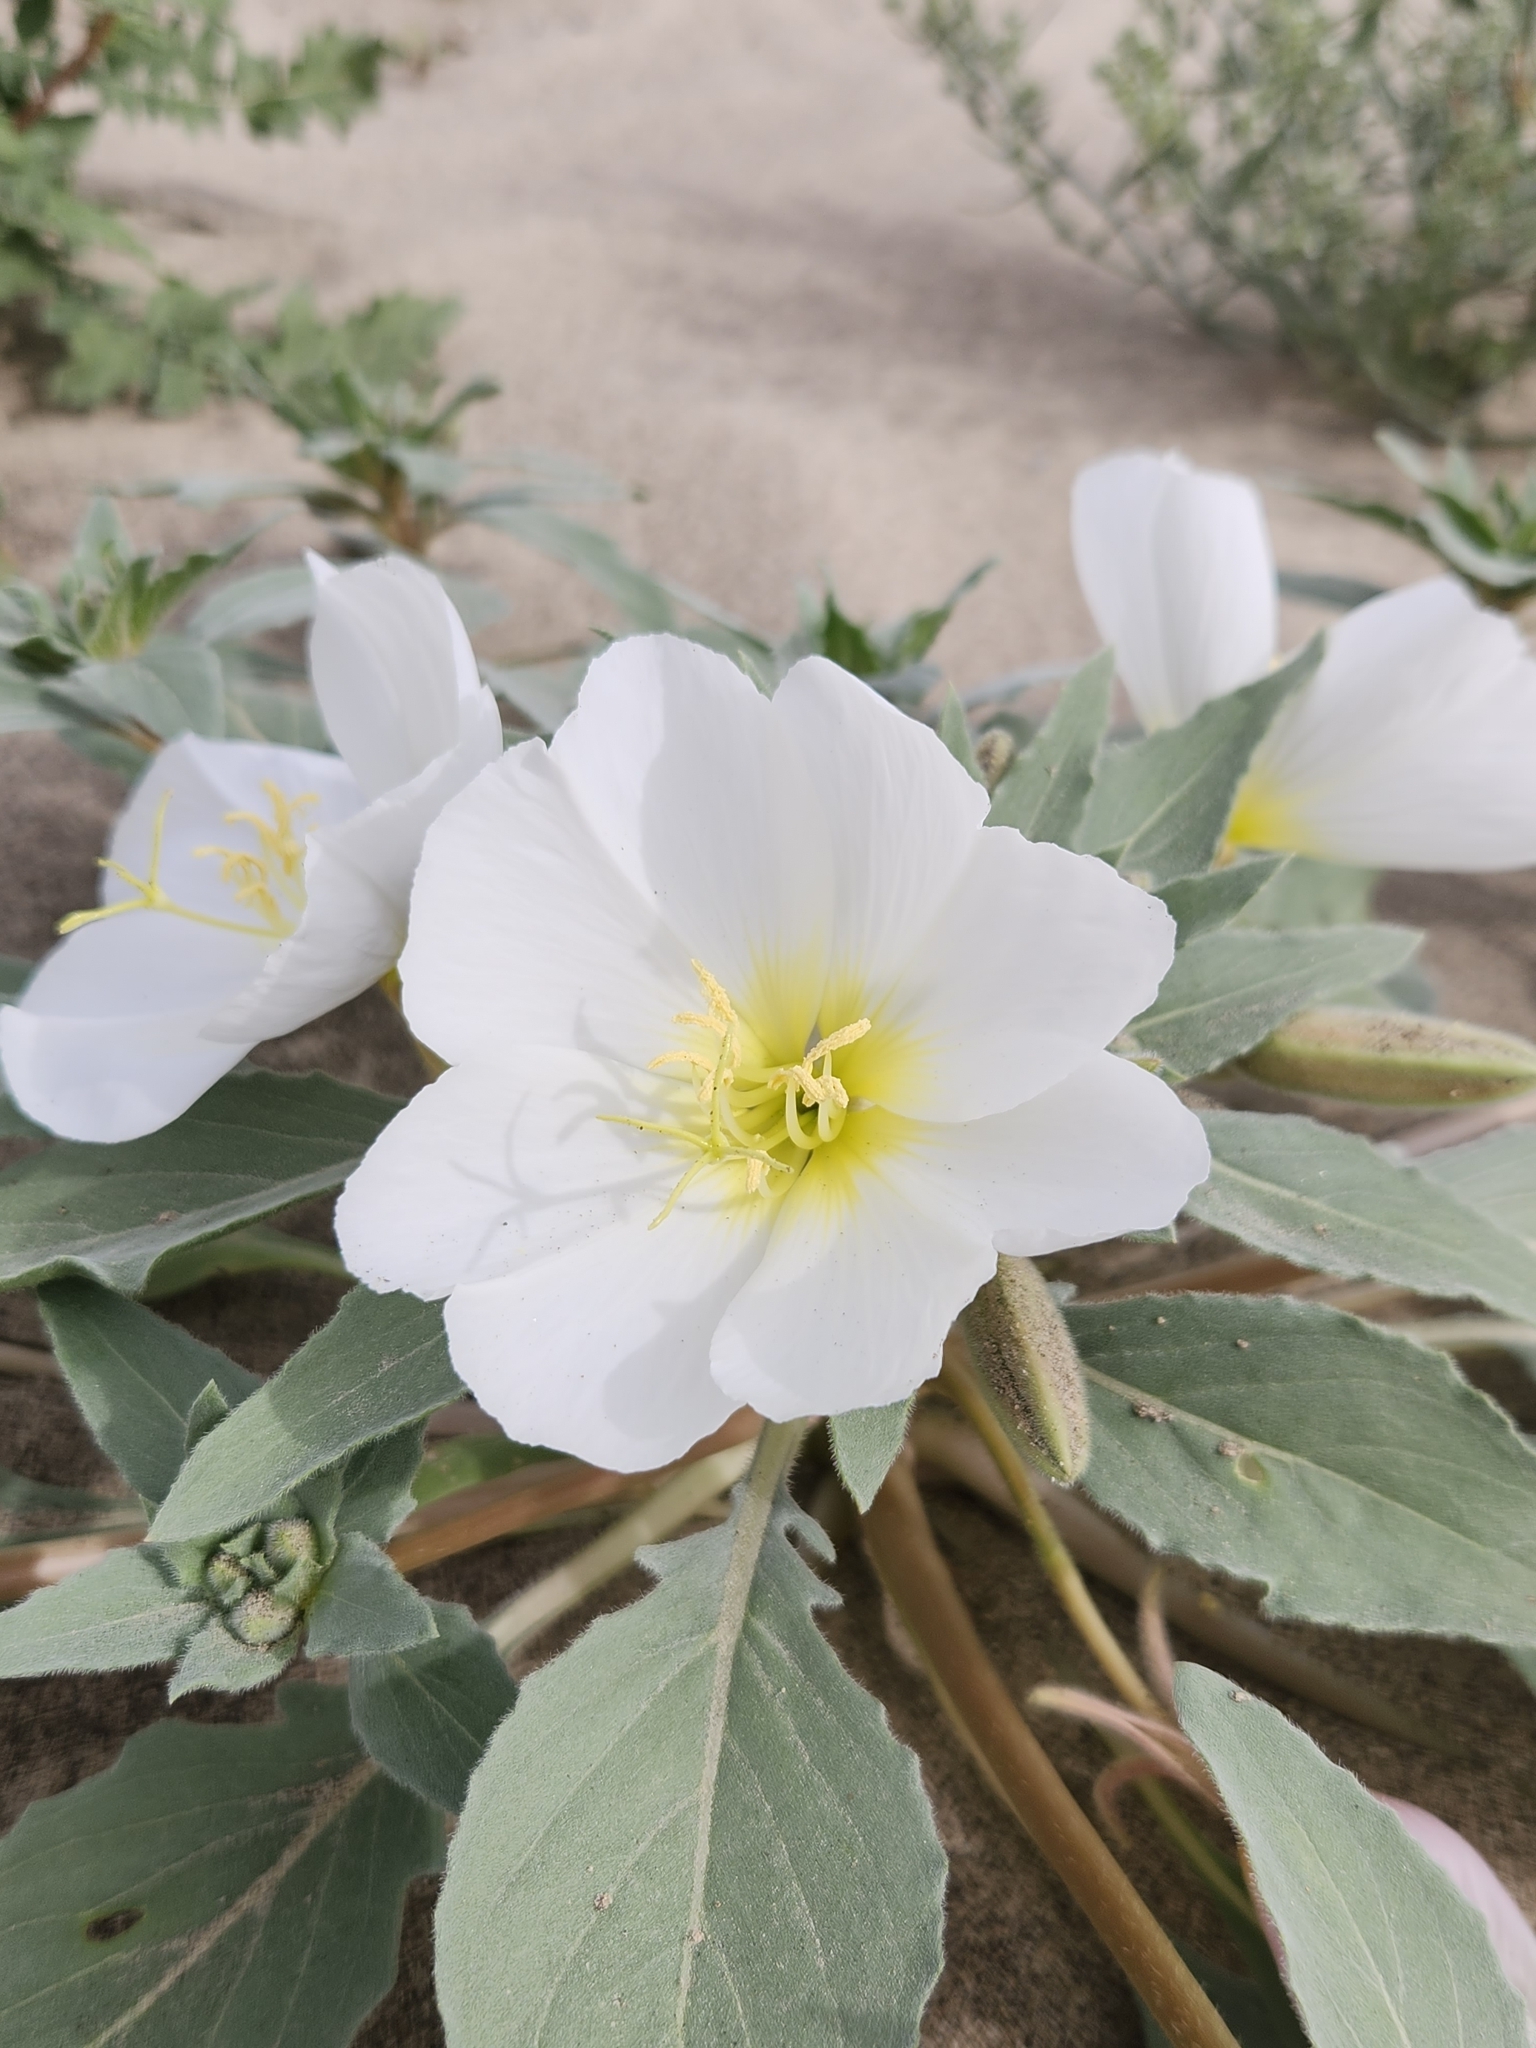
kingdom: Plantae
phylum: Tracheophyta
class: Magnoliopsida
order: Myrtales
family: Onagraceae
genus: Oenothera
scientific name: Oenothera deltoides
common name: Basket evening-primrose
